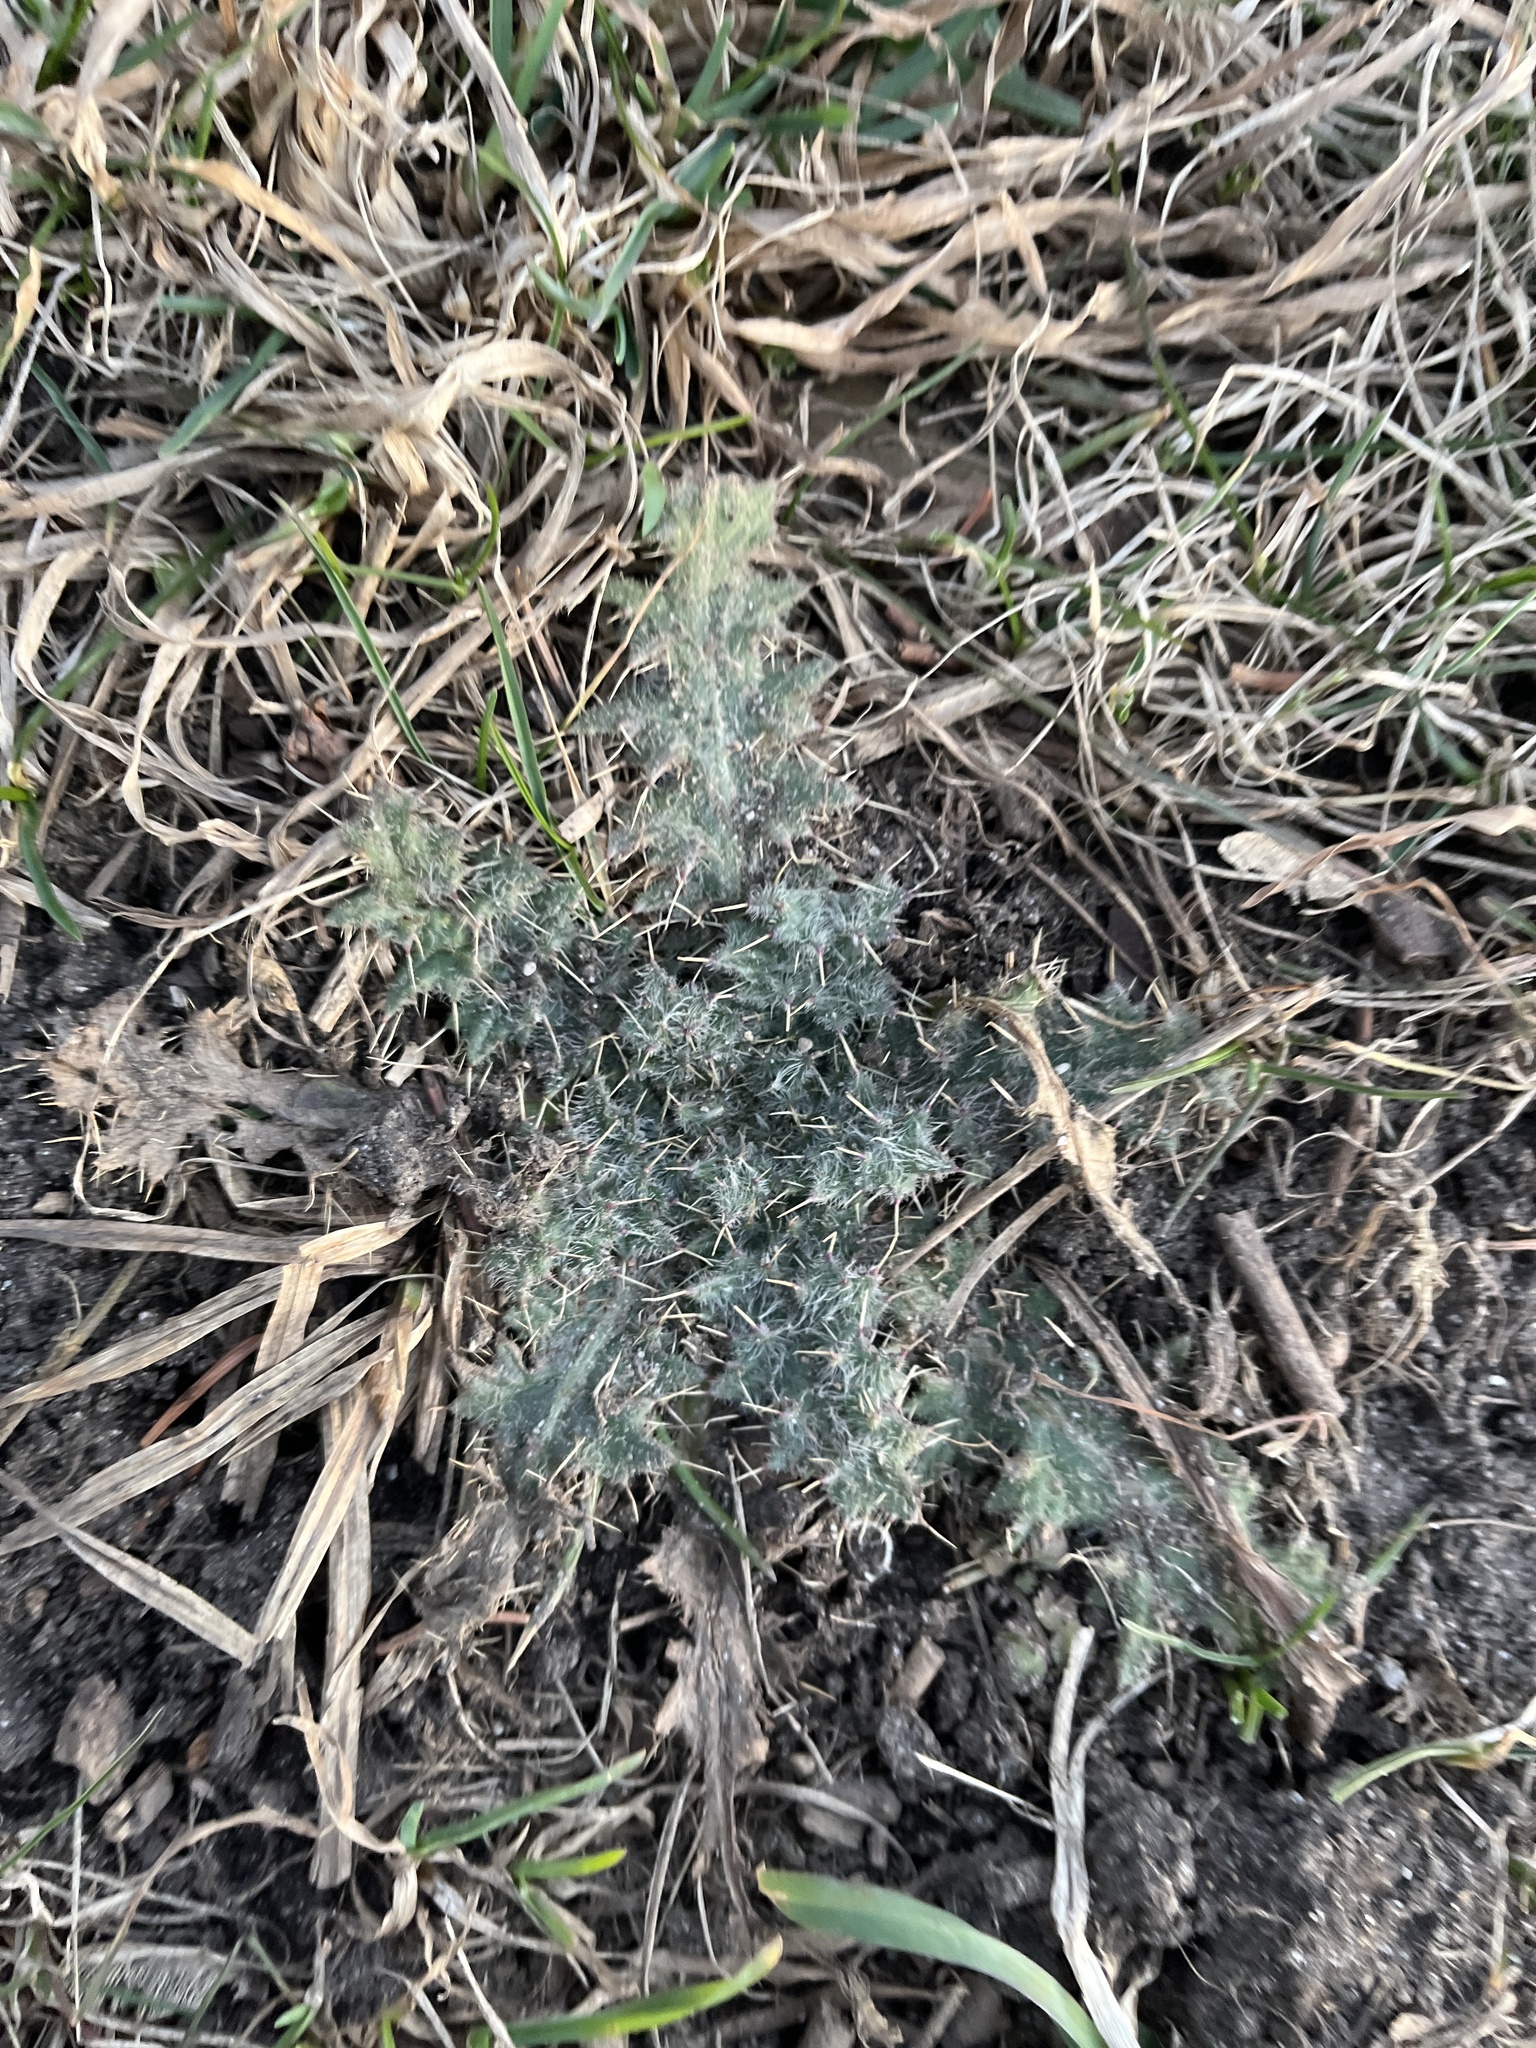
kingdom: Plantae
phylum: Tracheophyta
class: Magnoliopsida
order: Asterales
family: Asteraceae
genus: Cirsium
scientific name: Cirsium vulgare
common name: Bull thistle
